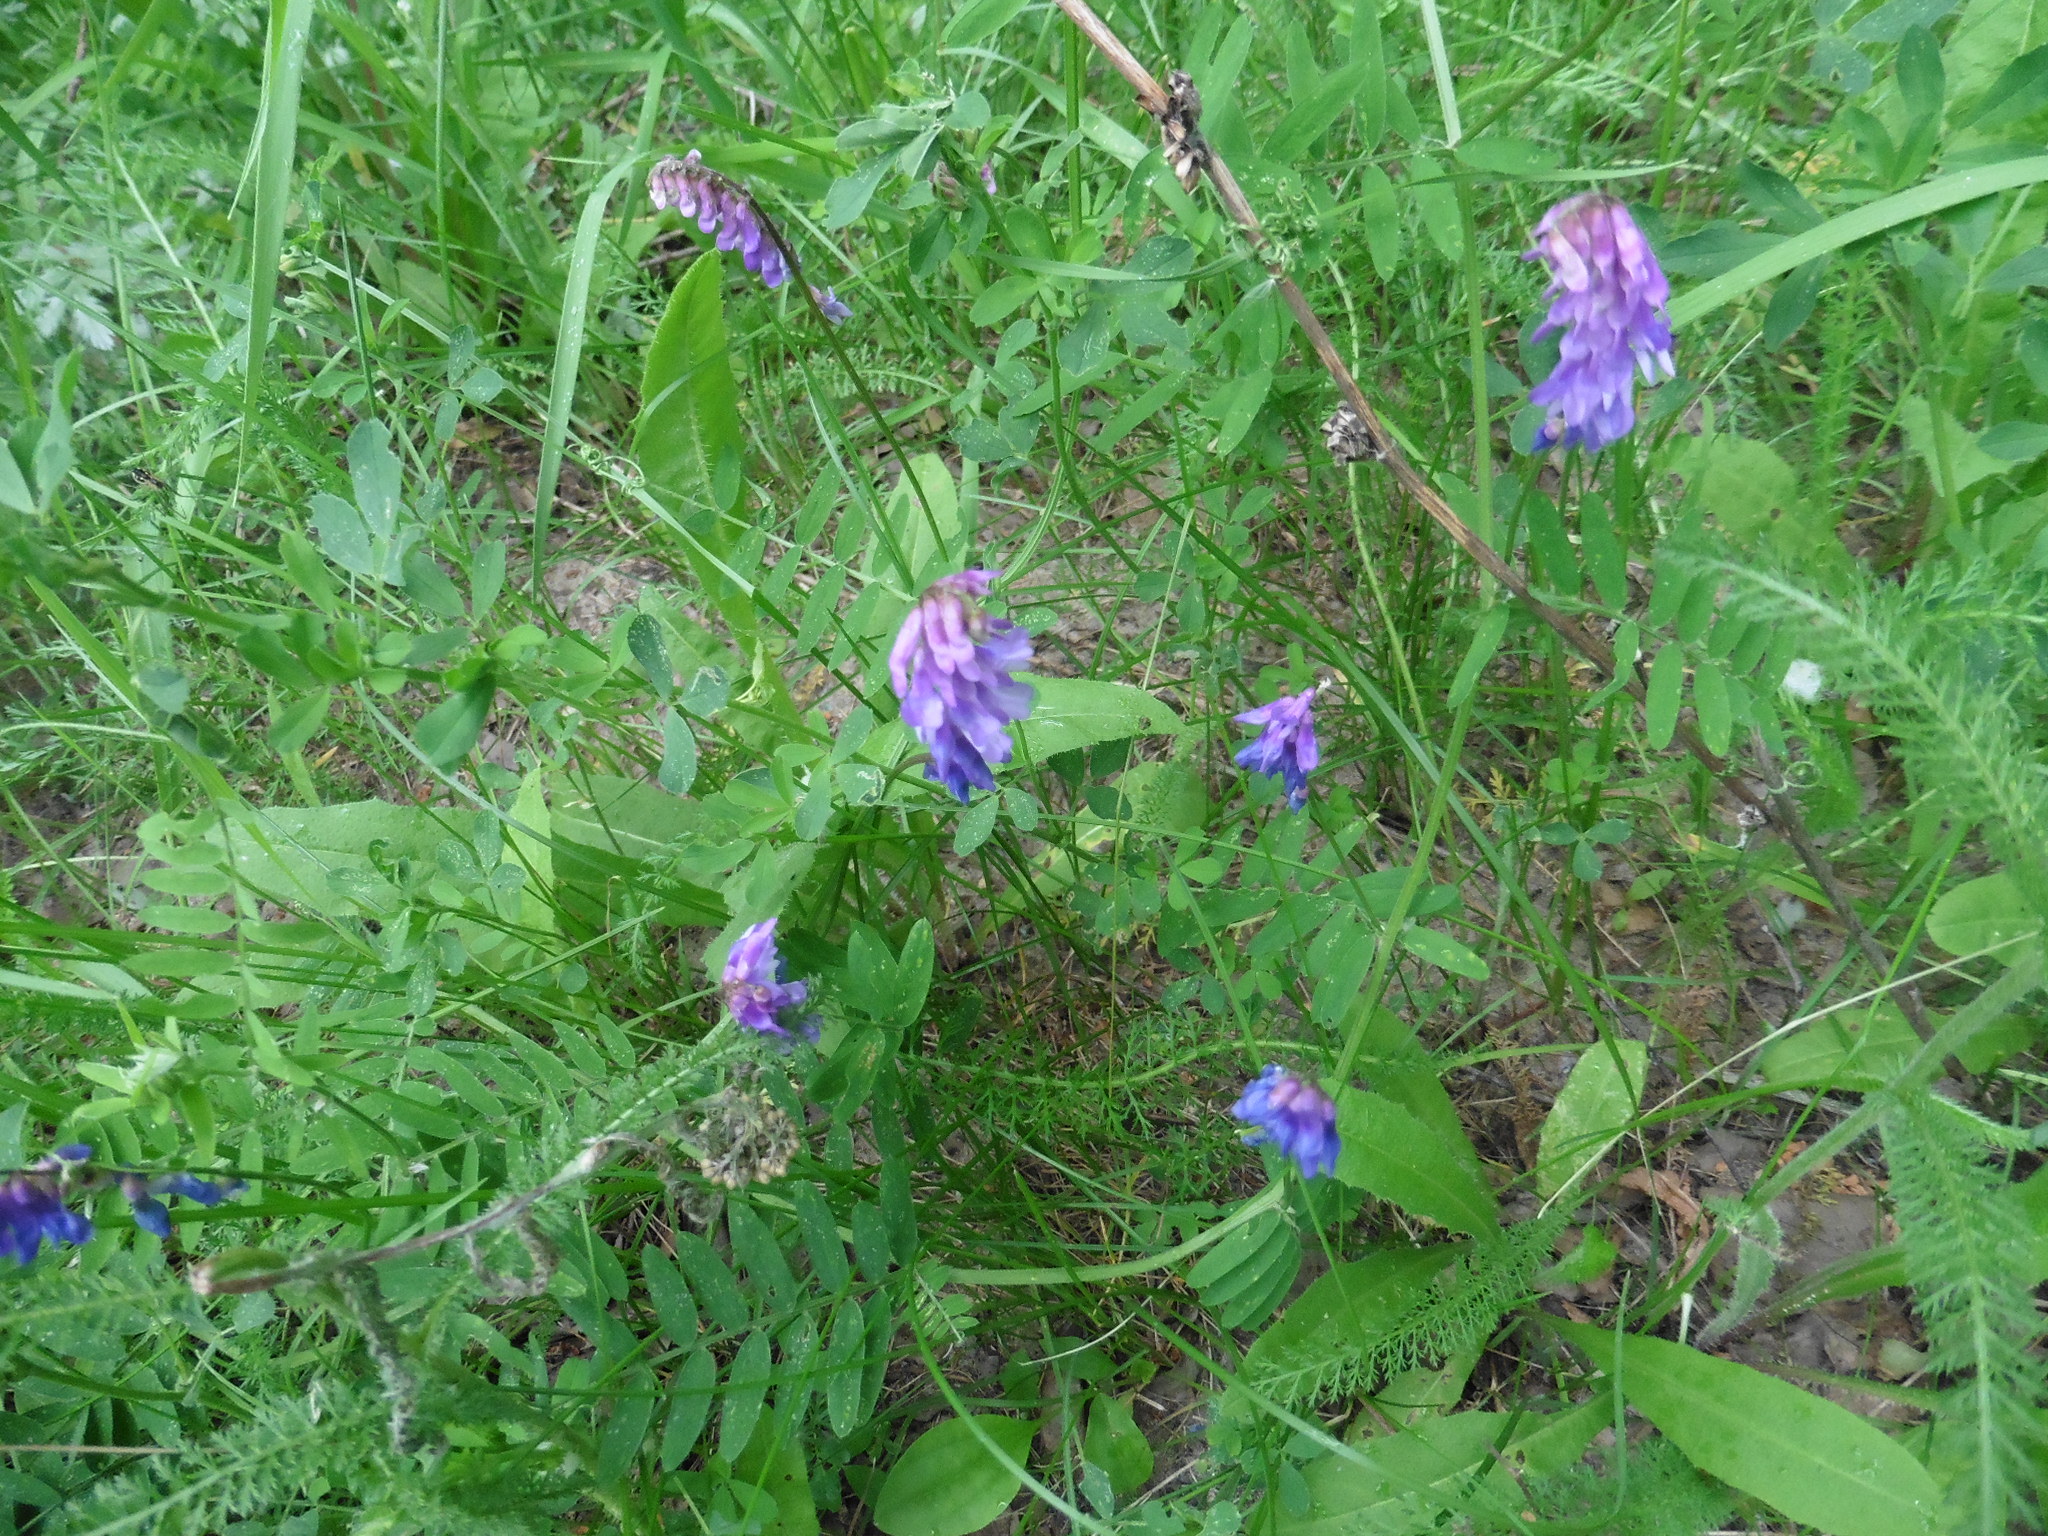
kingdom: Plantae
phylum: Tracheophyta
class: Magnoliopsida
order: Fabales
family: Fabaceae
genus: Vicia
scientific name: Vicia cracca
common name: Bird vetch
